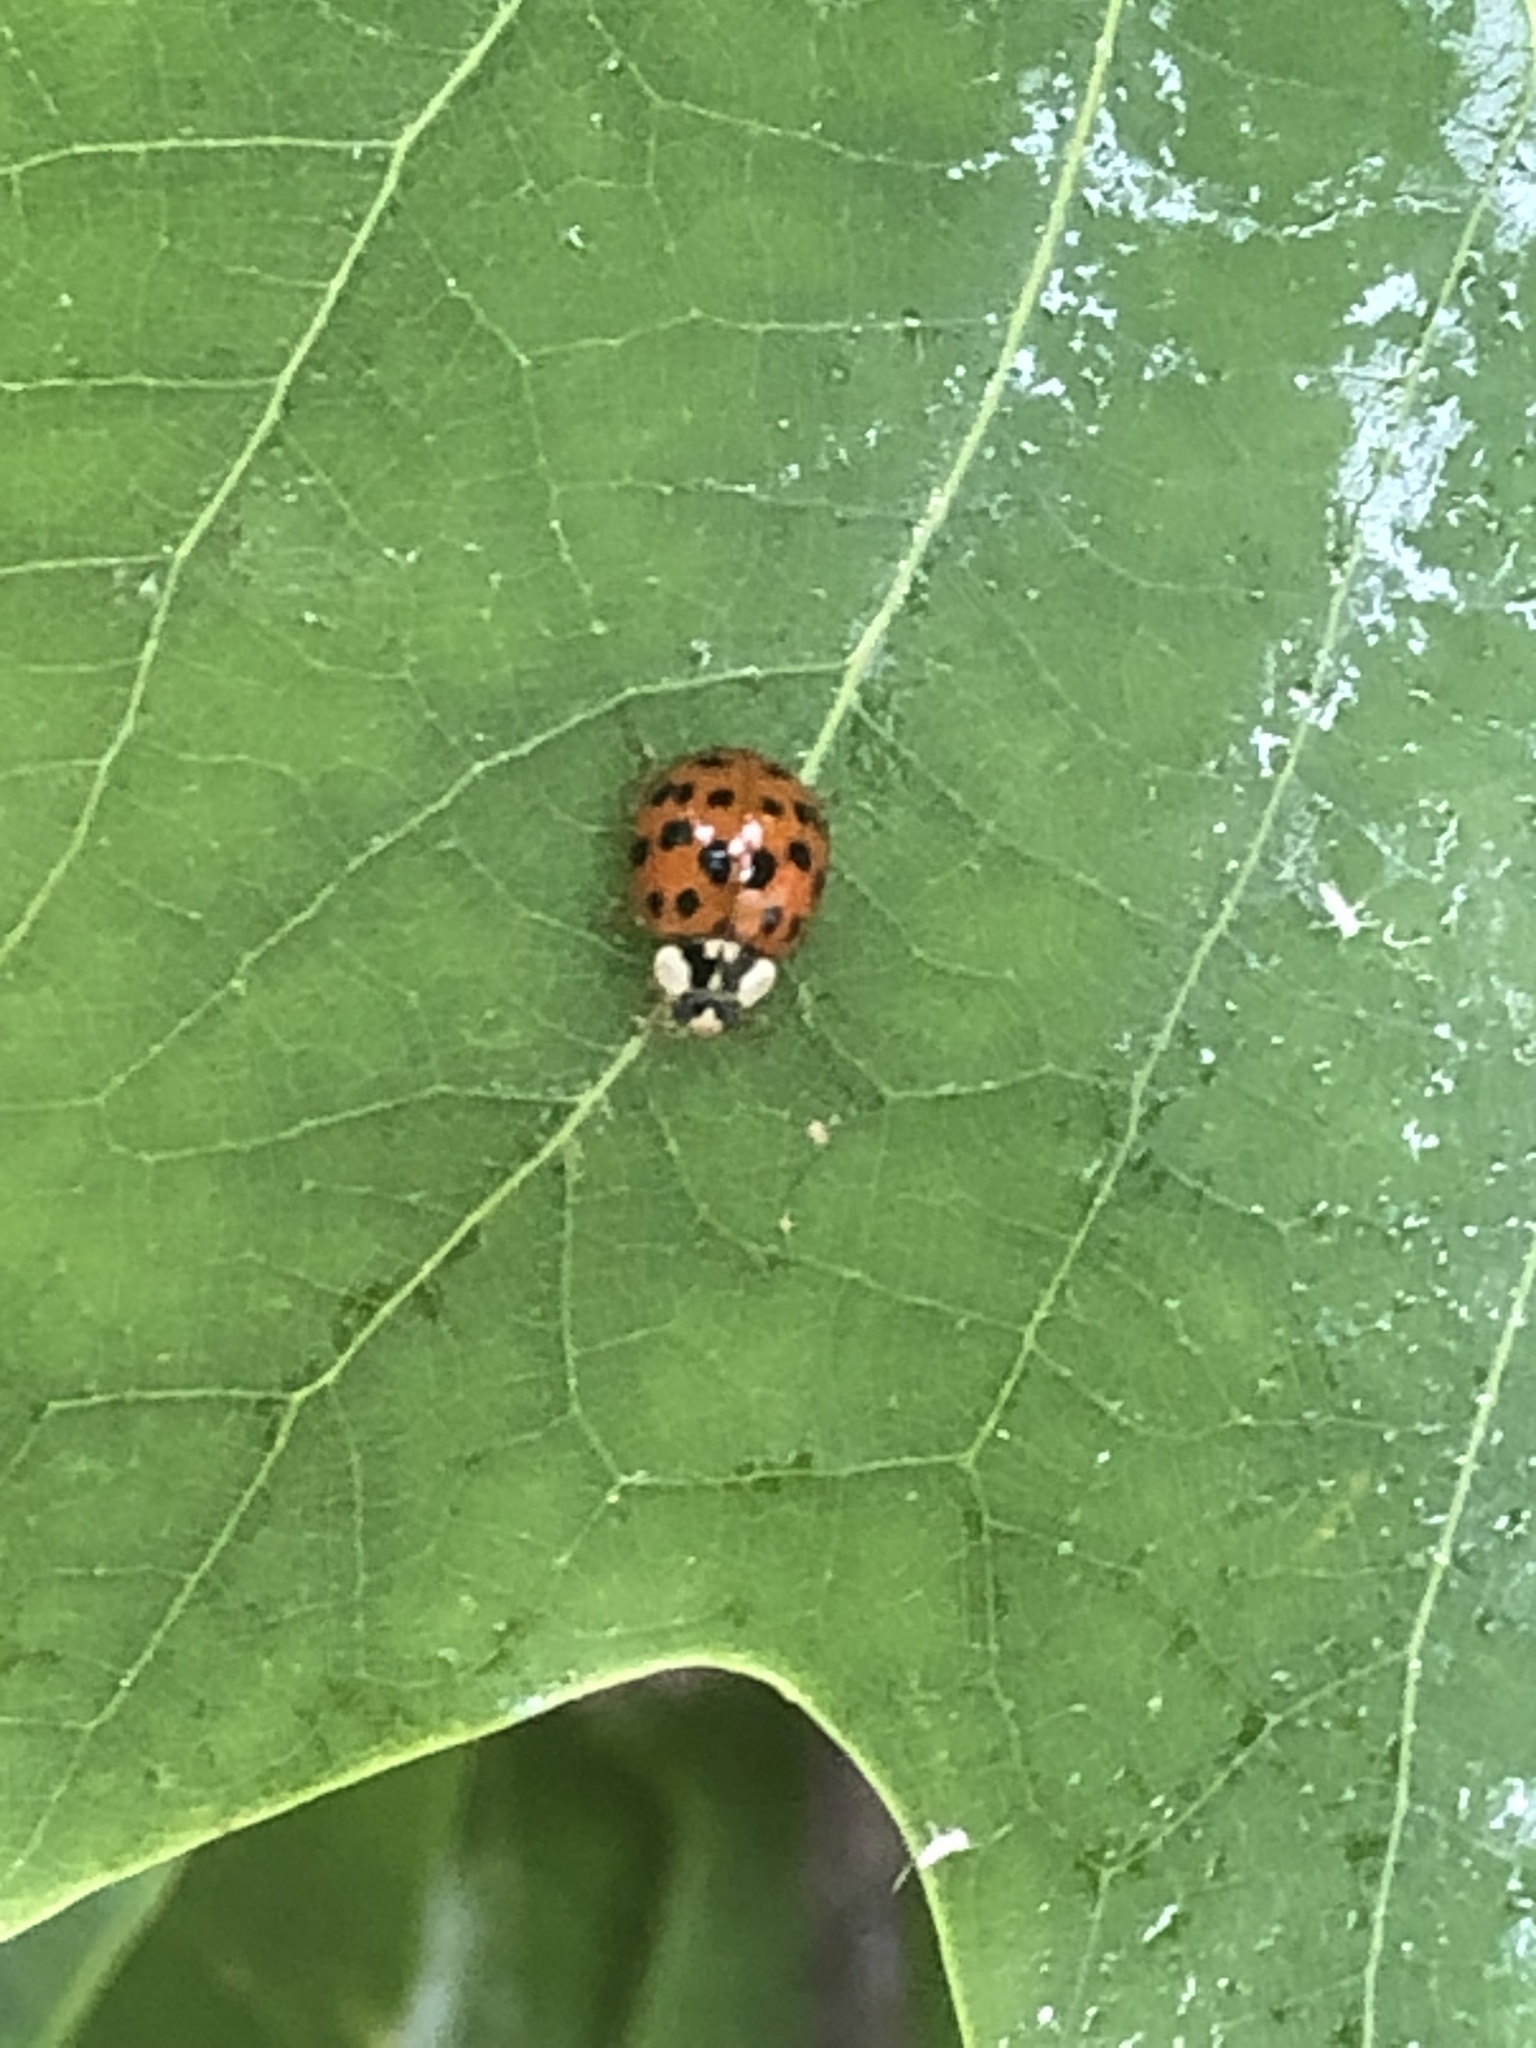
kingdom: Animalia
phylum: Arthropoda
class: Insecta
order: Coleoptera
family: Coccinellidae
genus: Harmonia
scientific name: Harmonia axyridis
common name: Harlequin ladybird
